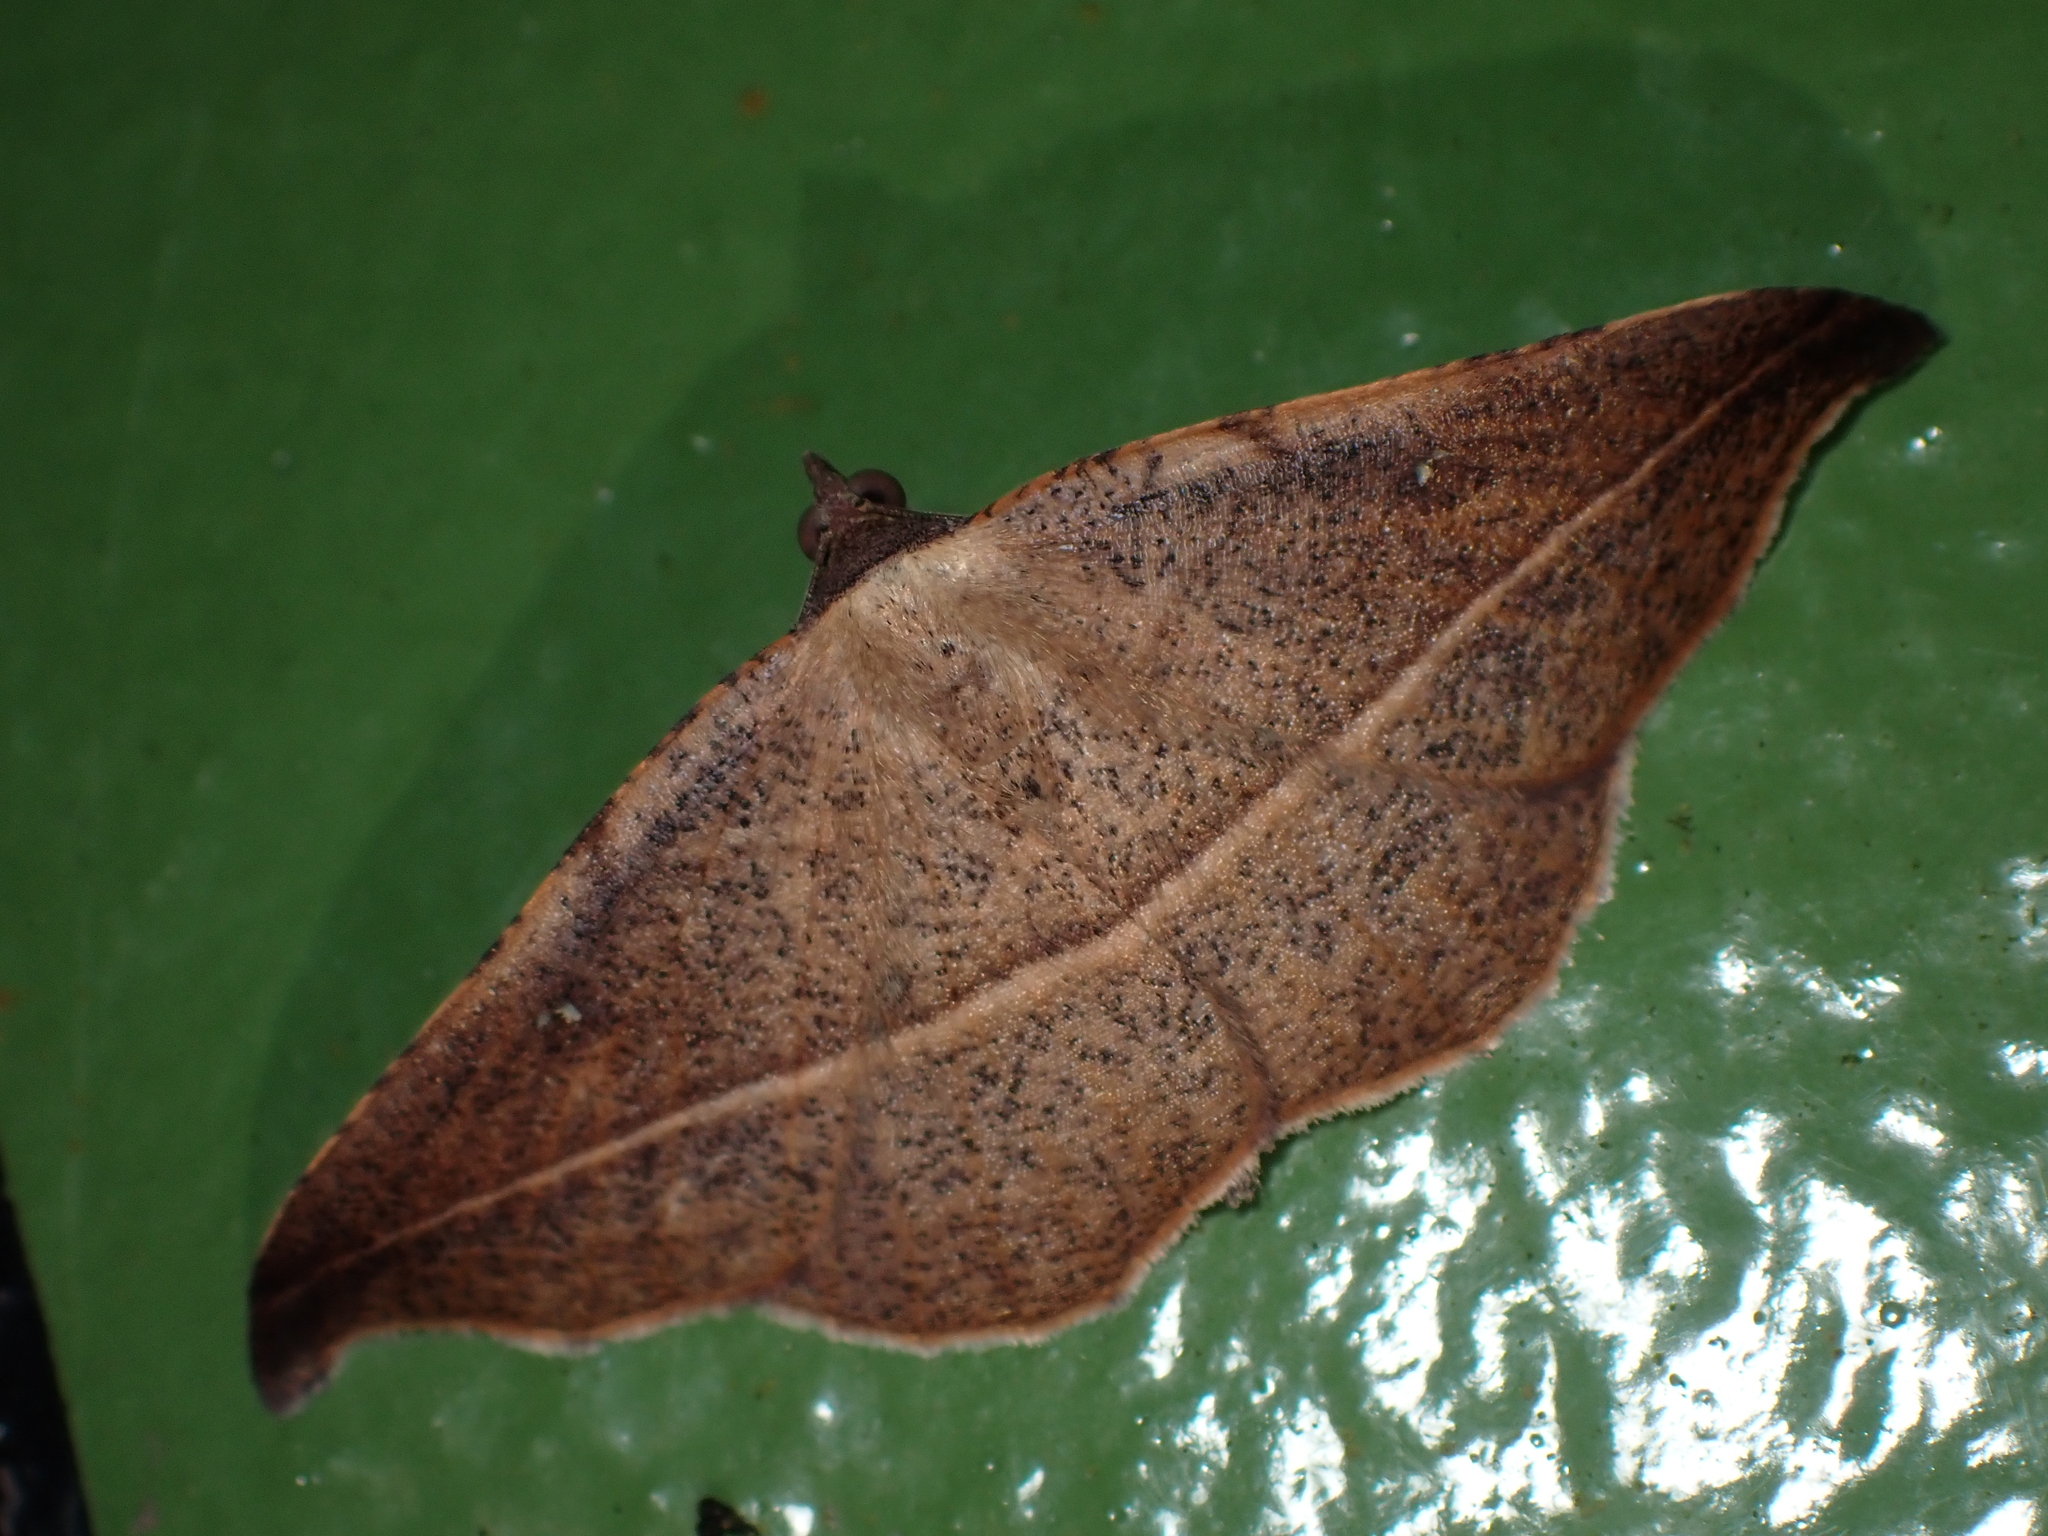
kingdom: Animalia
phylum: Arthropoda
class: Insecta
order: Lepidoptera
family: Geometridae
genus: Sarisa
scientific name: Sarisa muriferata
